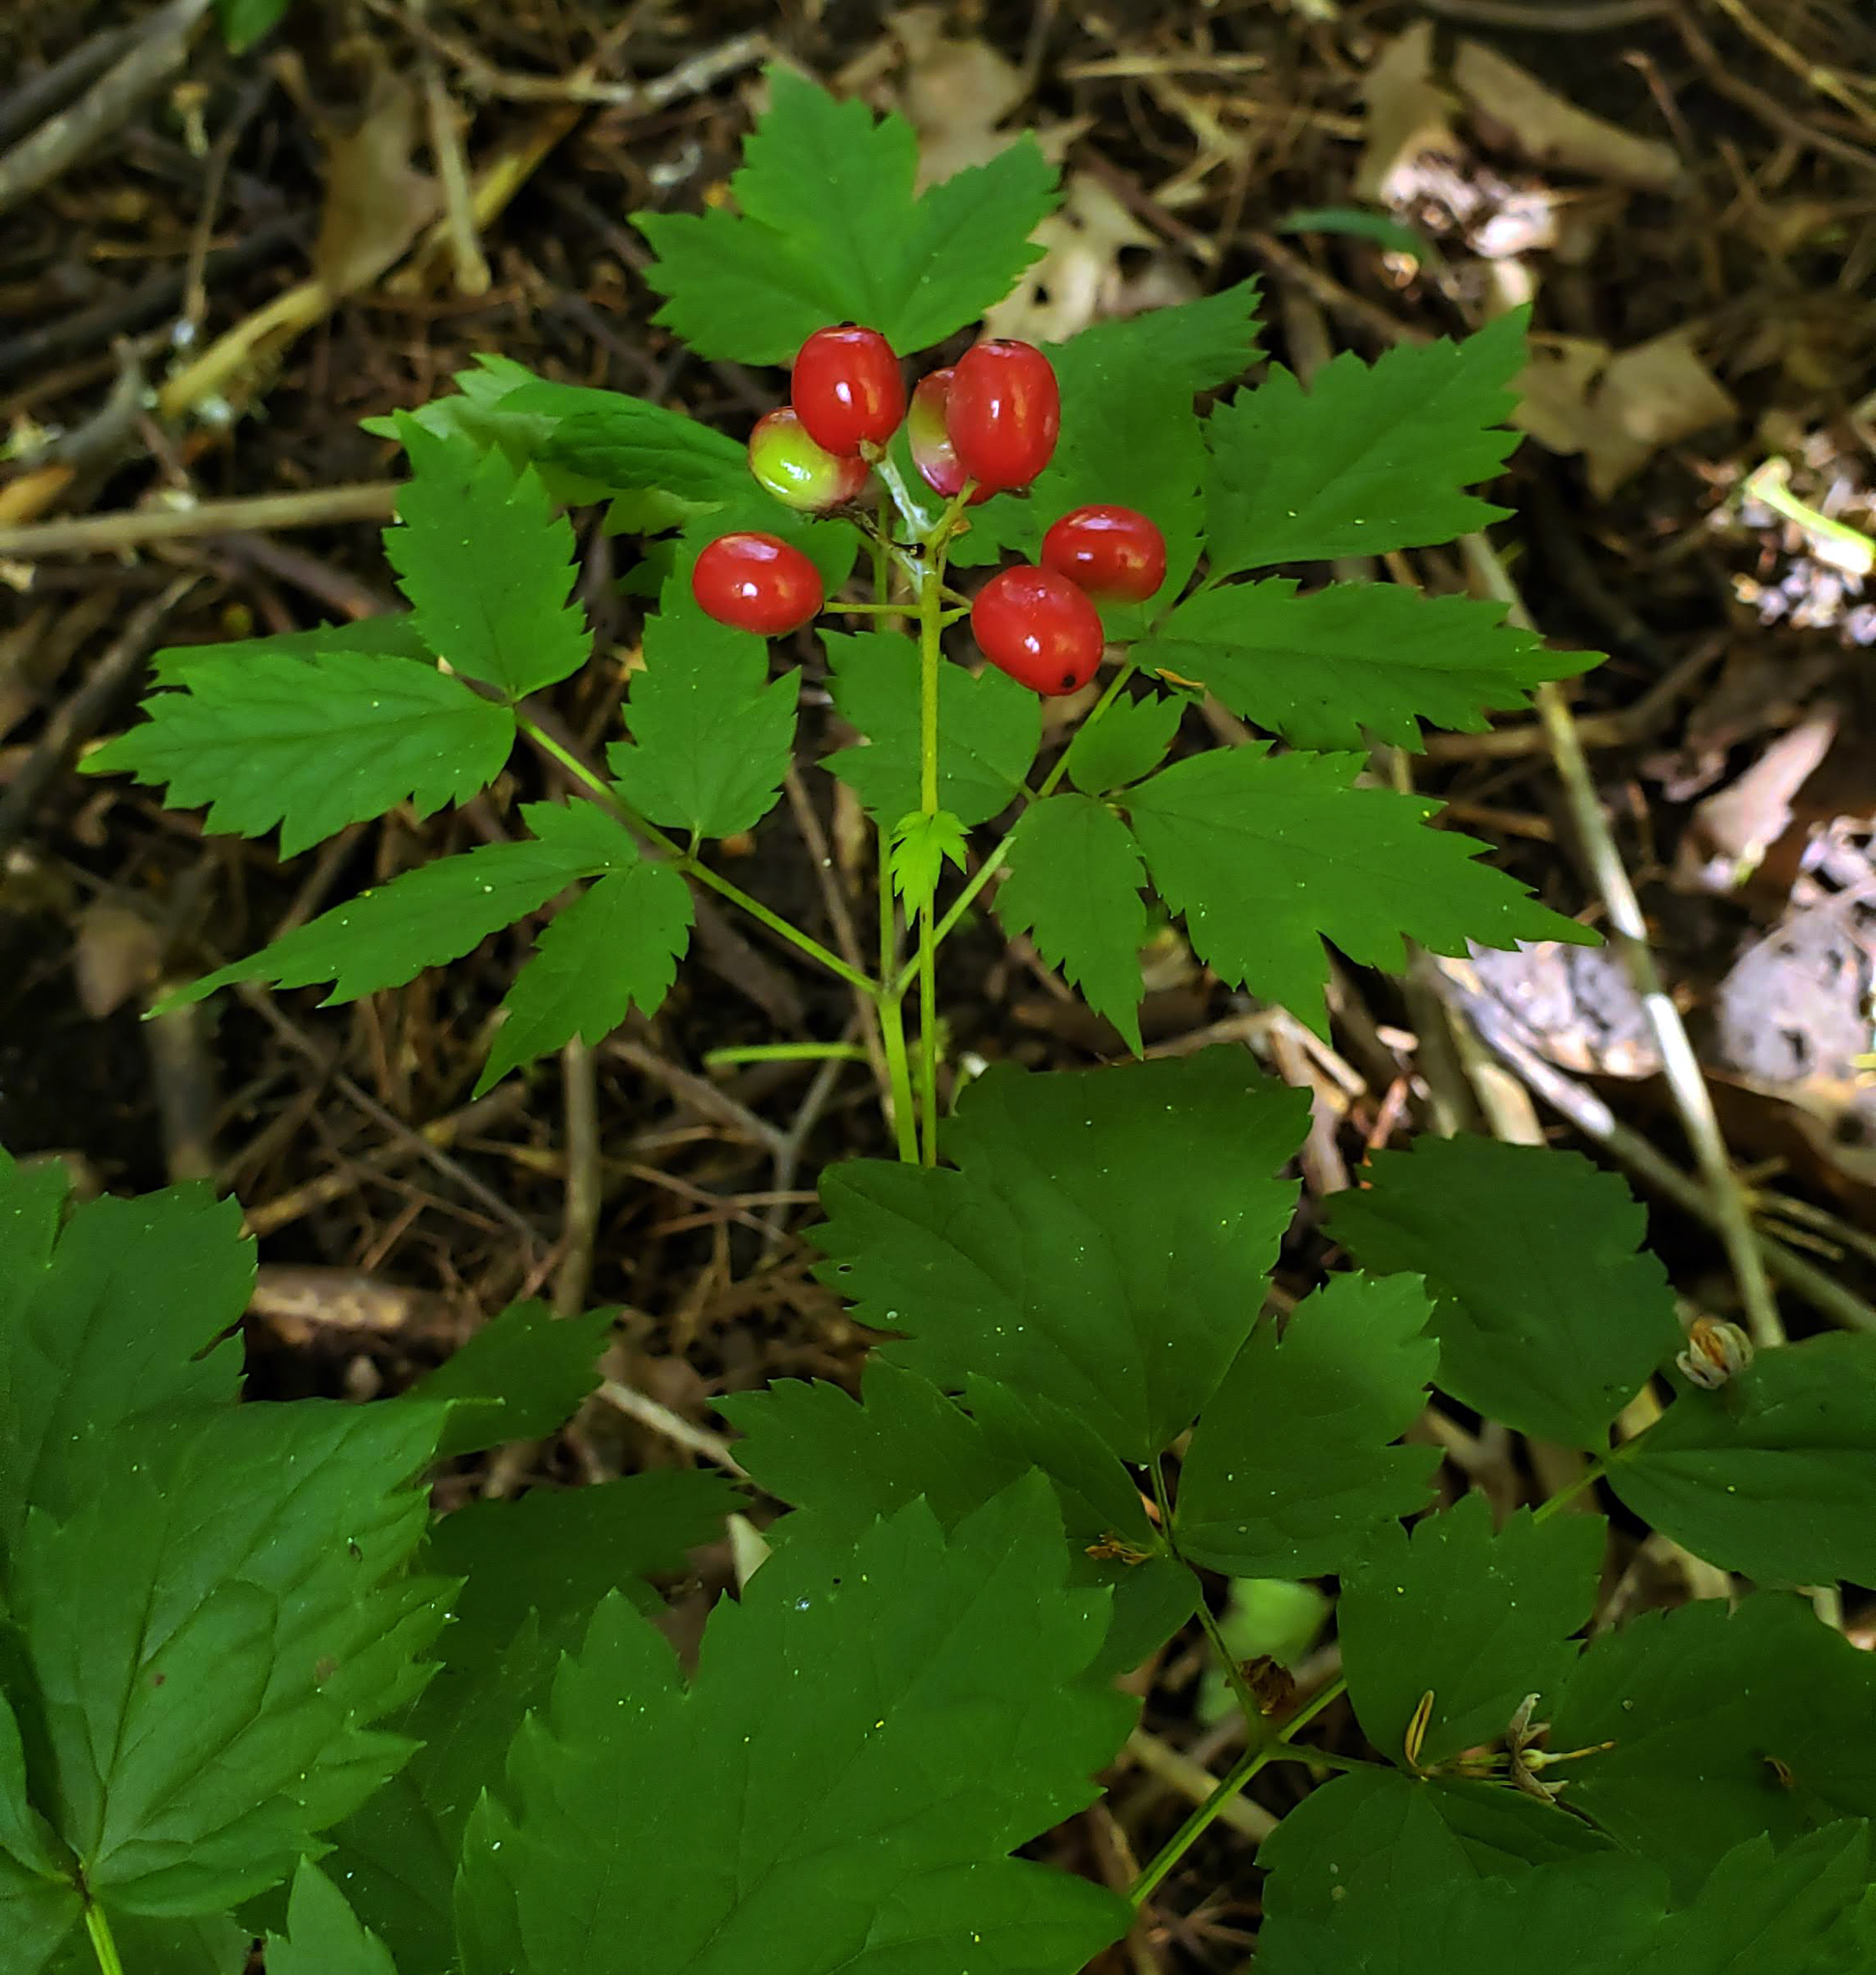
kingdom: Plantae
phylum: Tracheophyta
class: Magnoliopsida
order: Ranunculales
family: Ranunculaceae
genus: Actaea
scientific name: Actaea rubra
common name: Red baneberry
